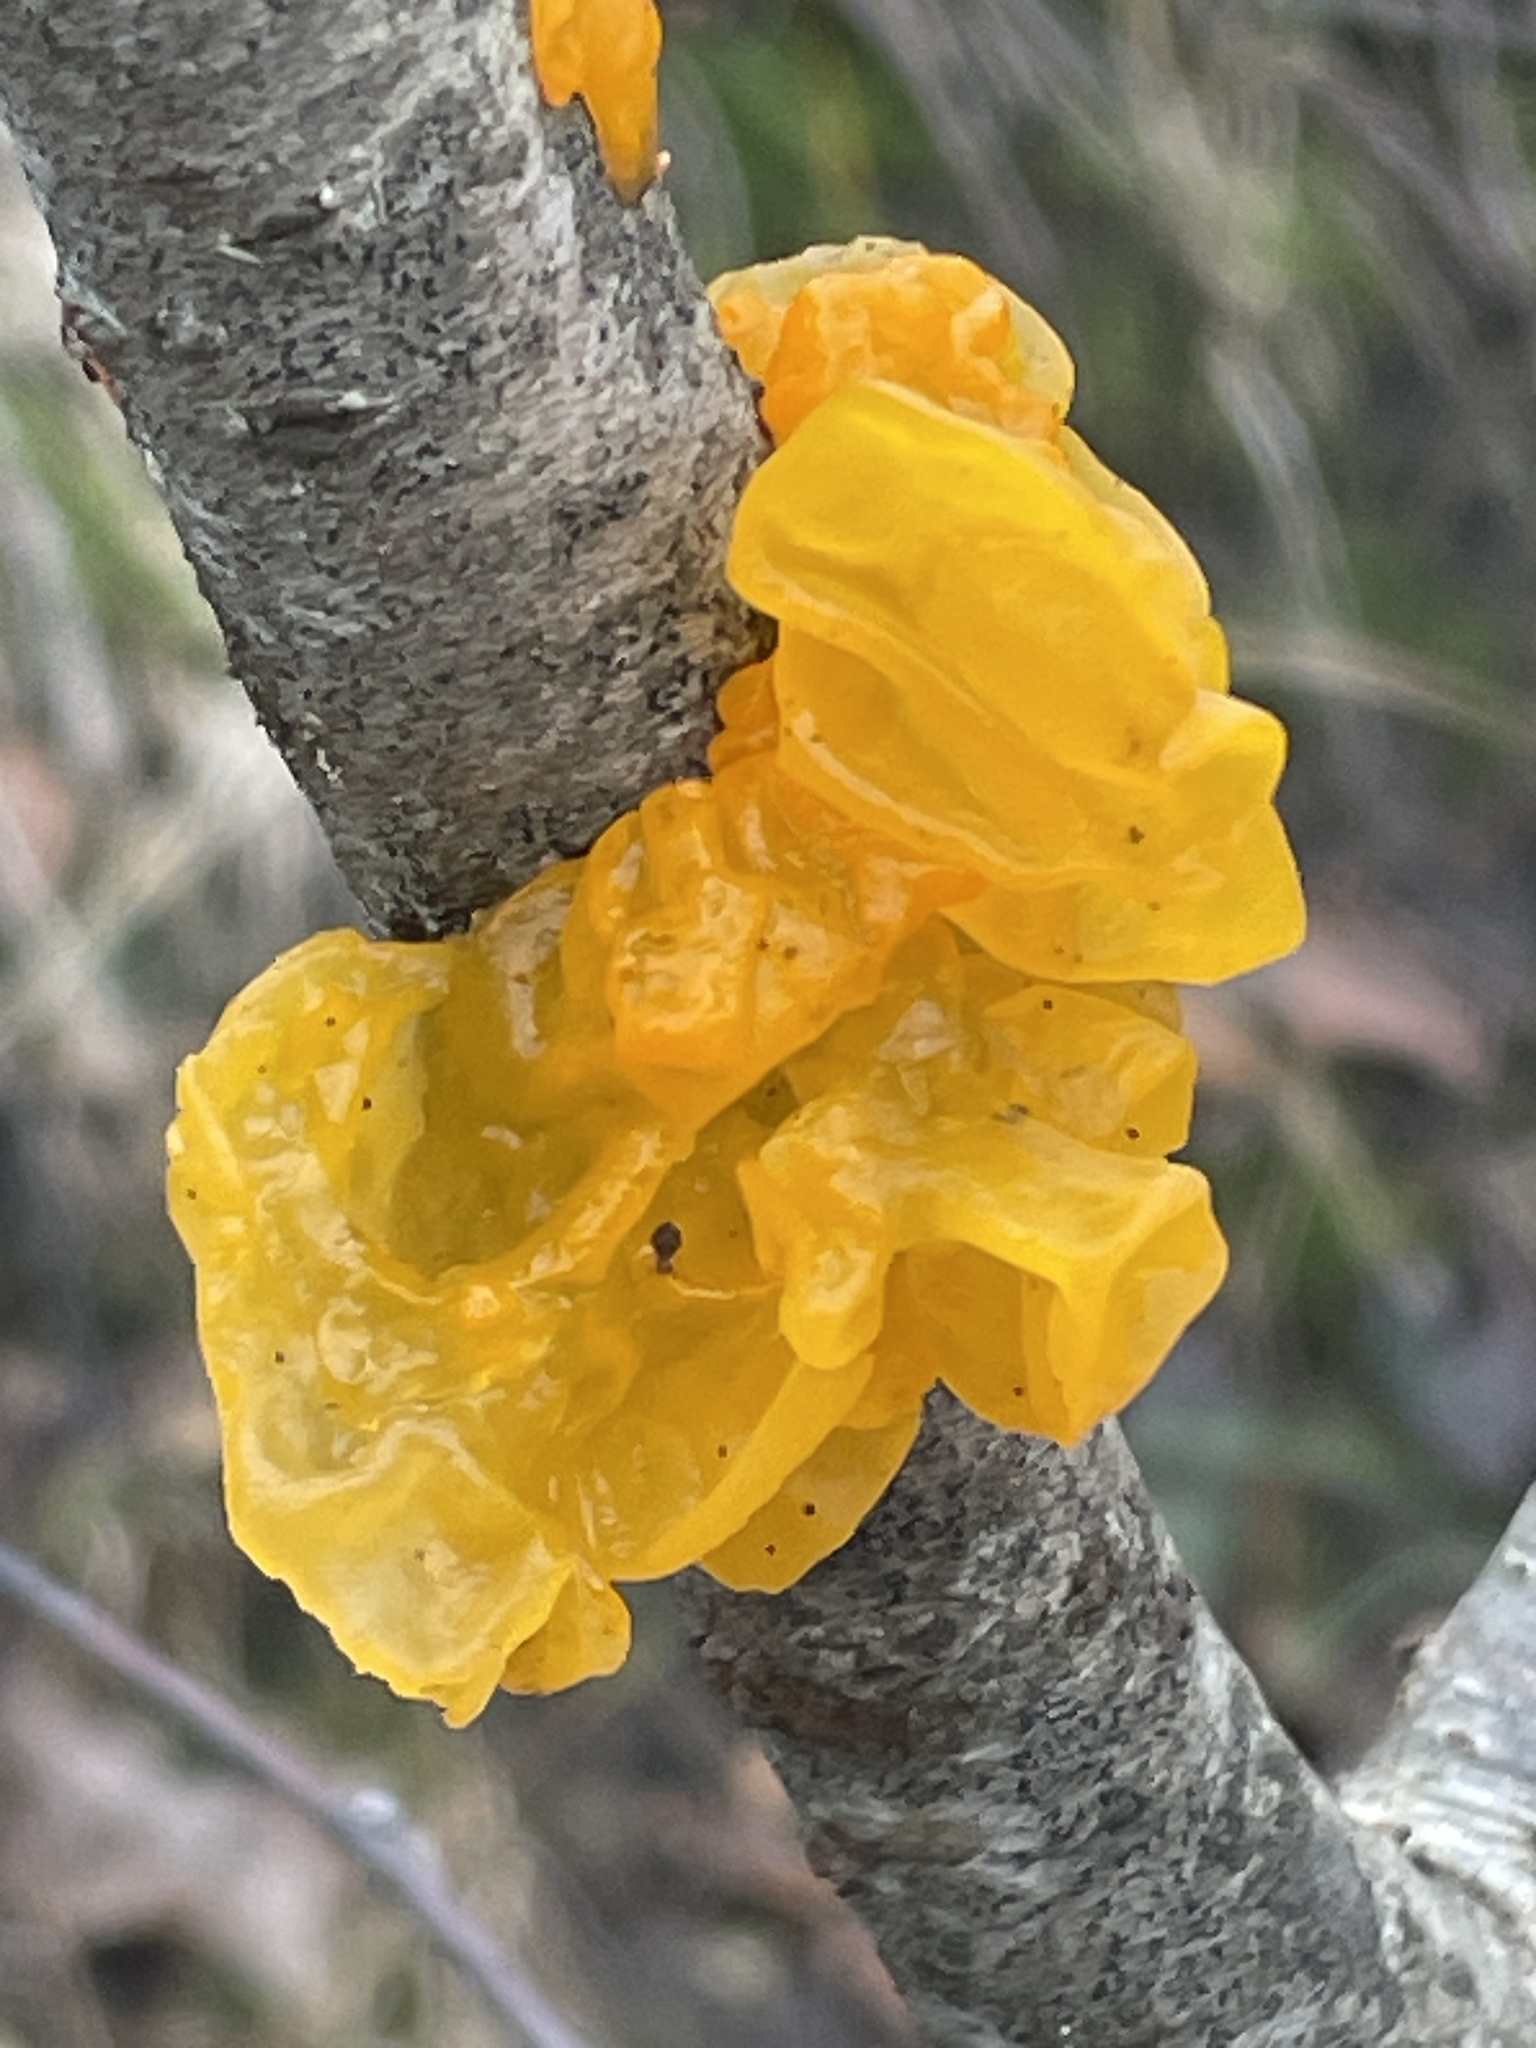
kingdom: Fungi
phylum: Basidiomycota
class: Tremellomycetes
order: Tremellales
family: Tremellaceae
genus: Tremella
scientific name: Tremella mesenterica
